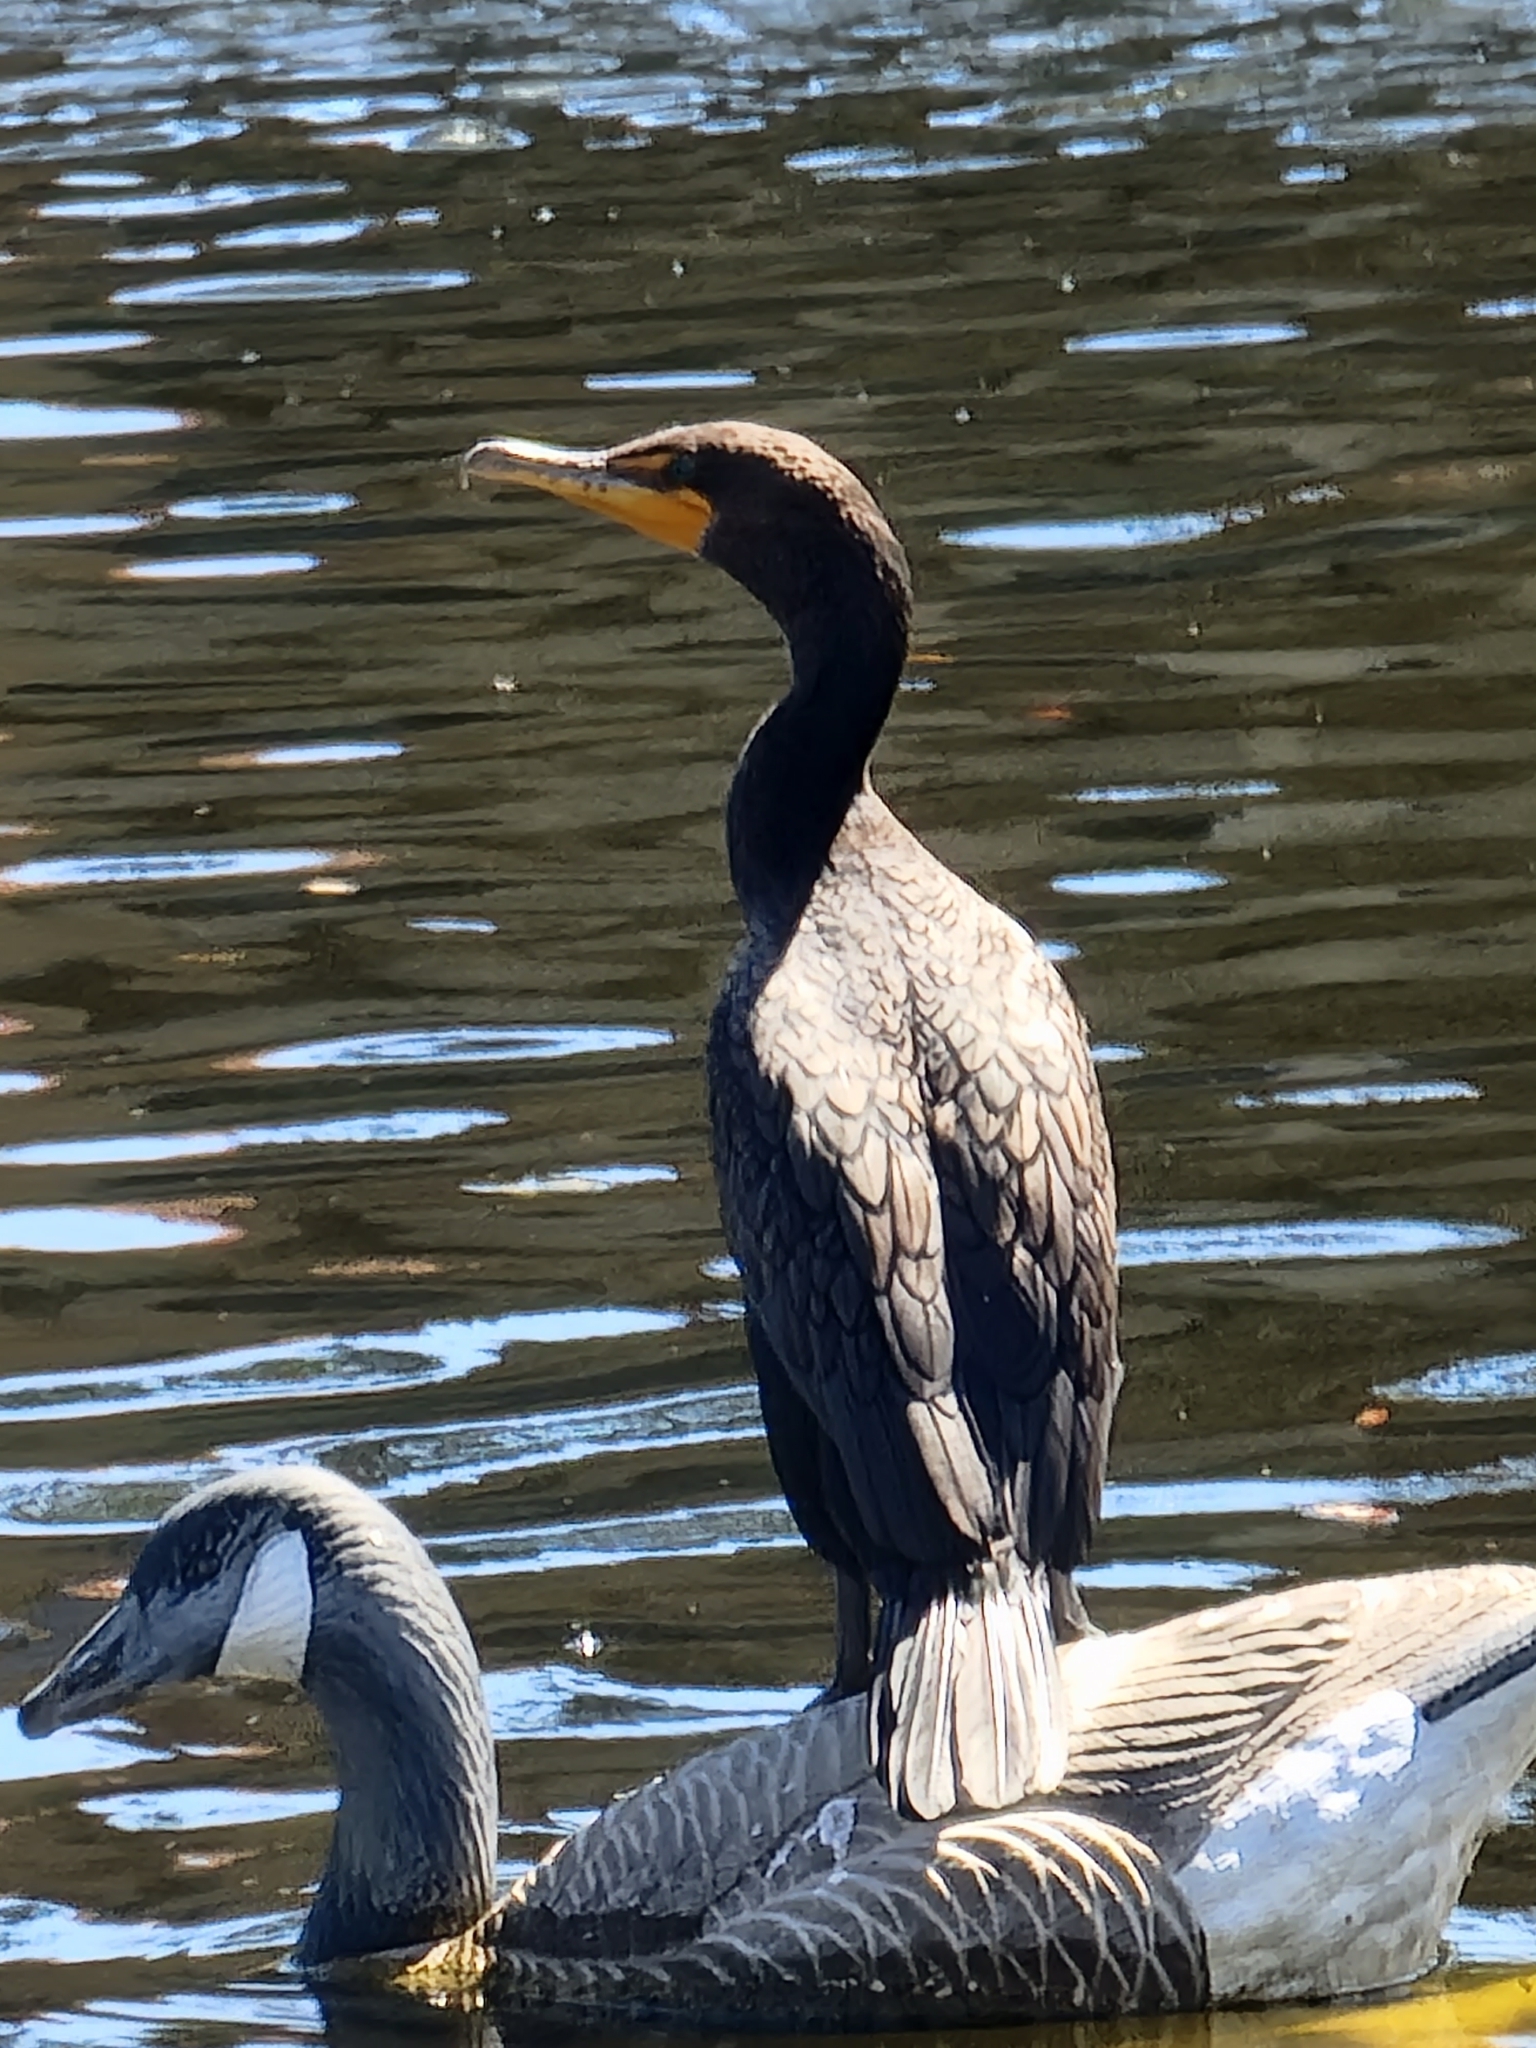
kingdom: Animalia
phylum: Chordata
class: Aves
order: Suliformes
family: Phalacrocoracidae
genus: Phalacrocorax
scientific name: Phalacrocorax auritus
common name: Double-crested cormorant
